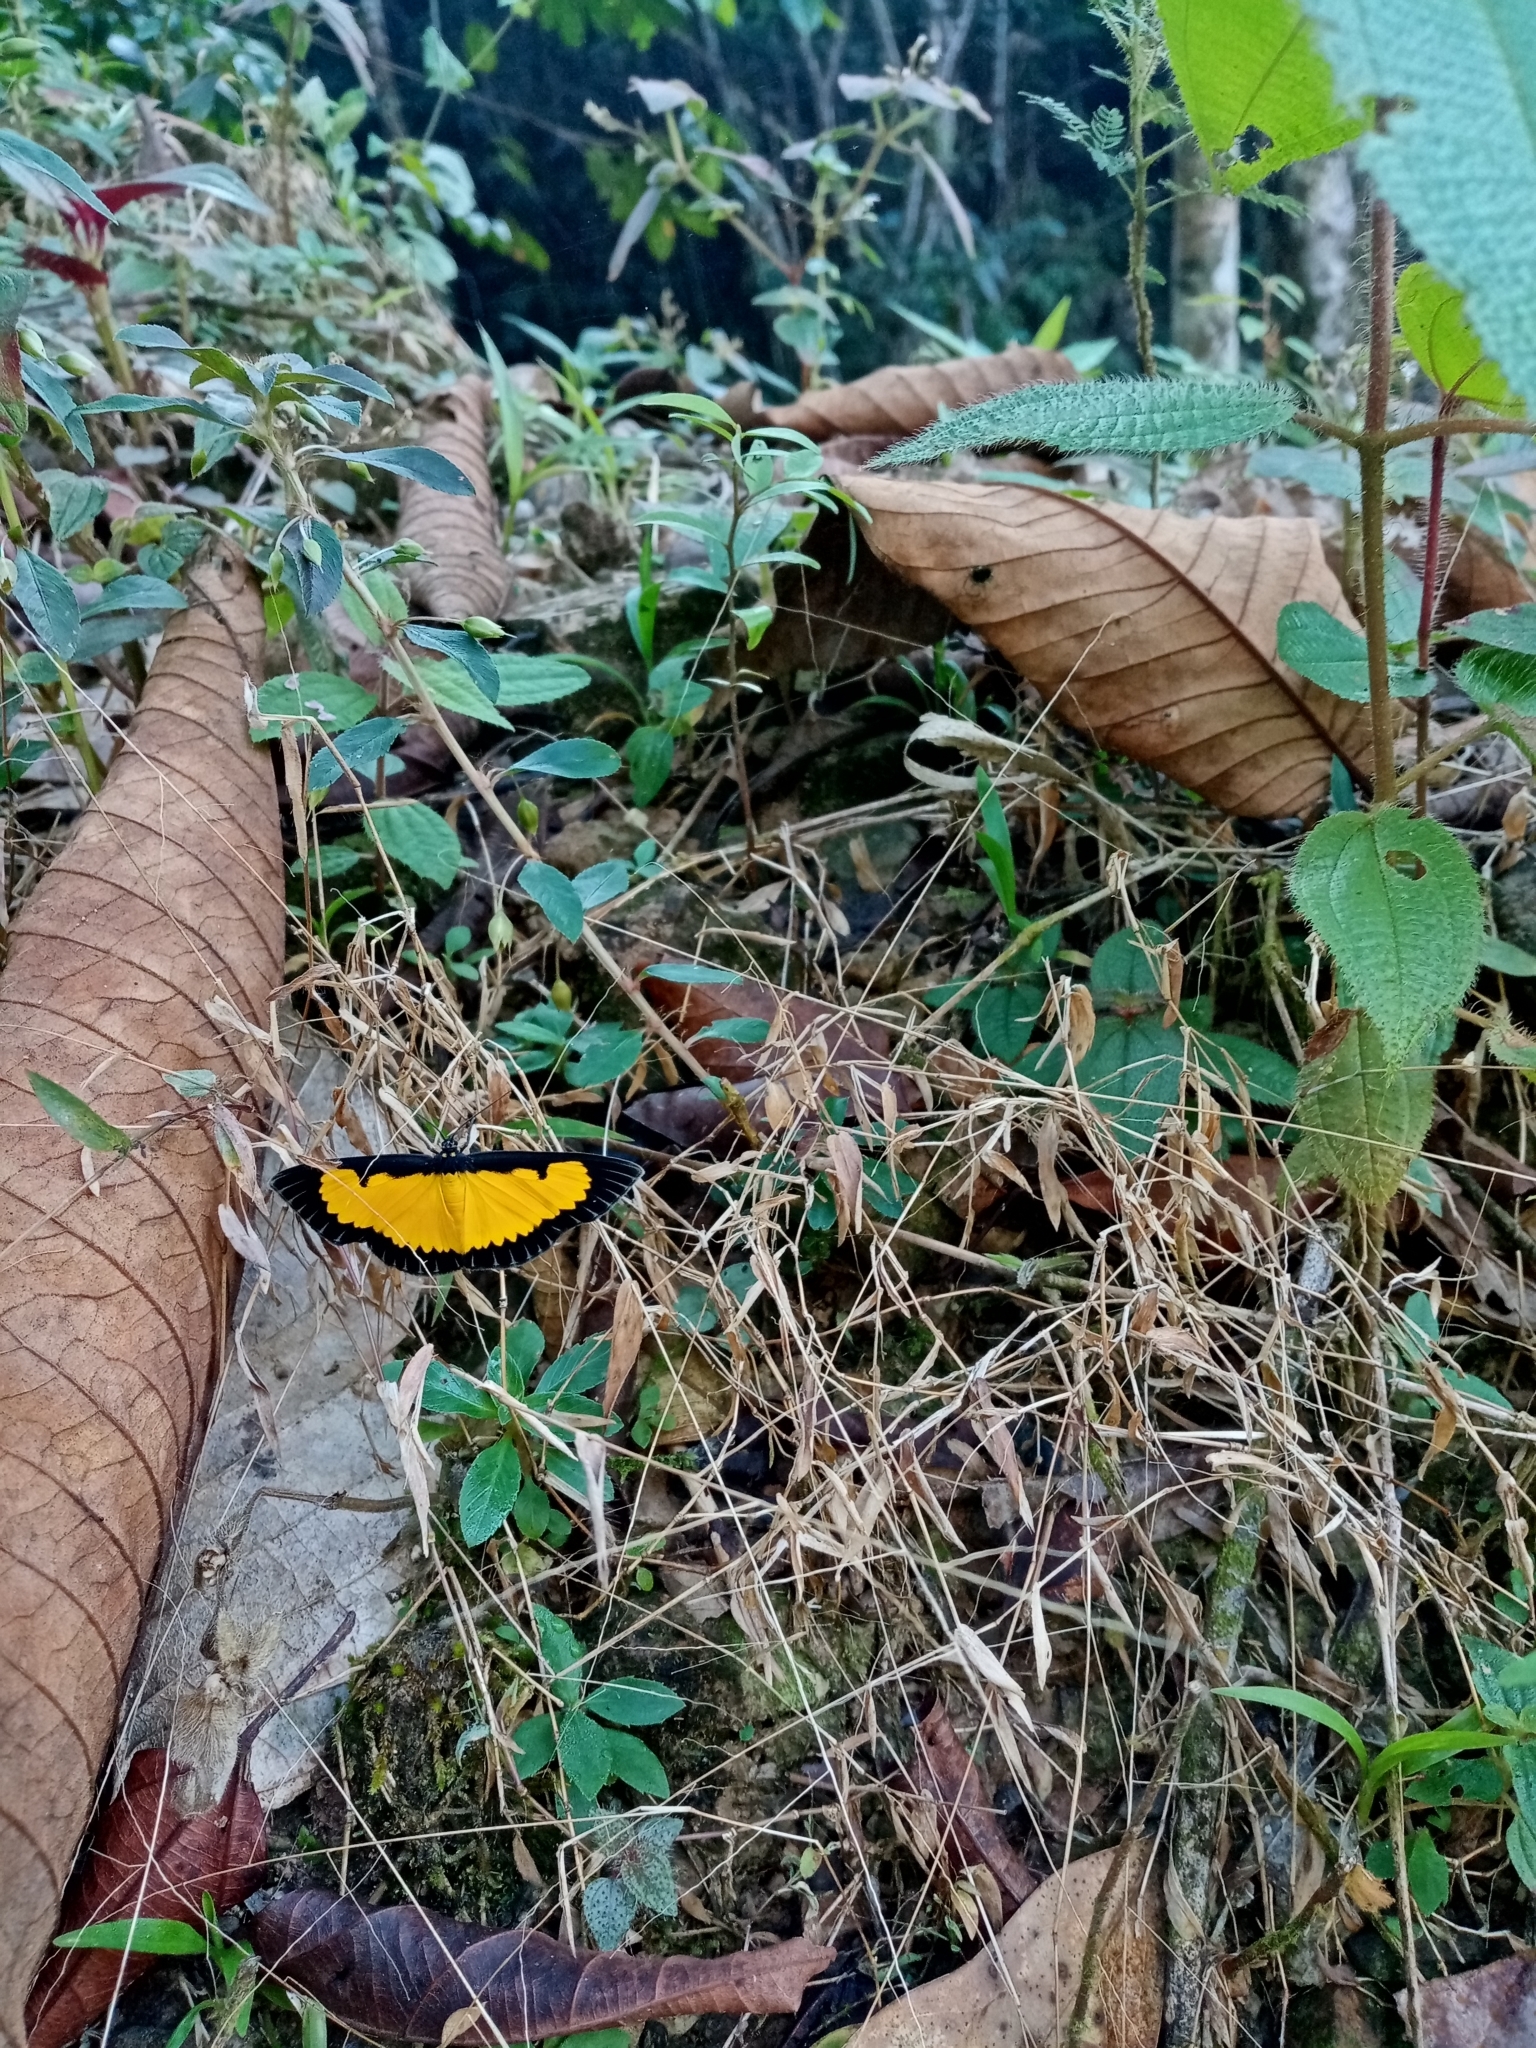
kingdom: Animalia
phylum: Arthropoda
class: Insecta
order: Lepidoptera
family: Geometridae
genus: Xanthyris
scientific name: Xanthyris flaveolata
